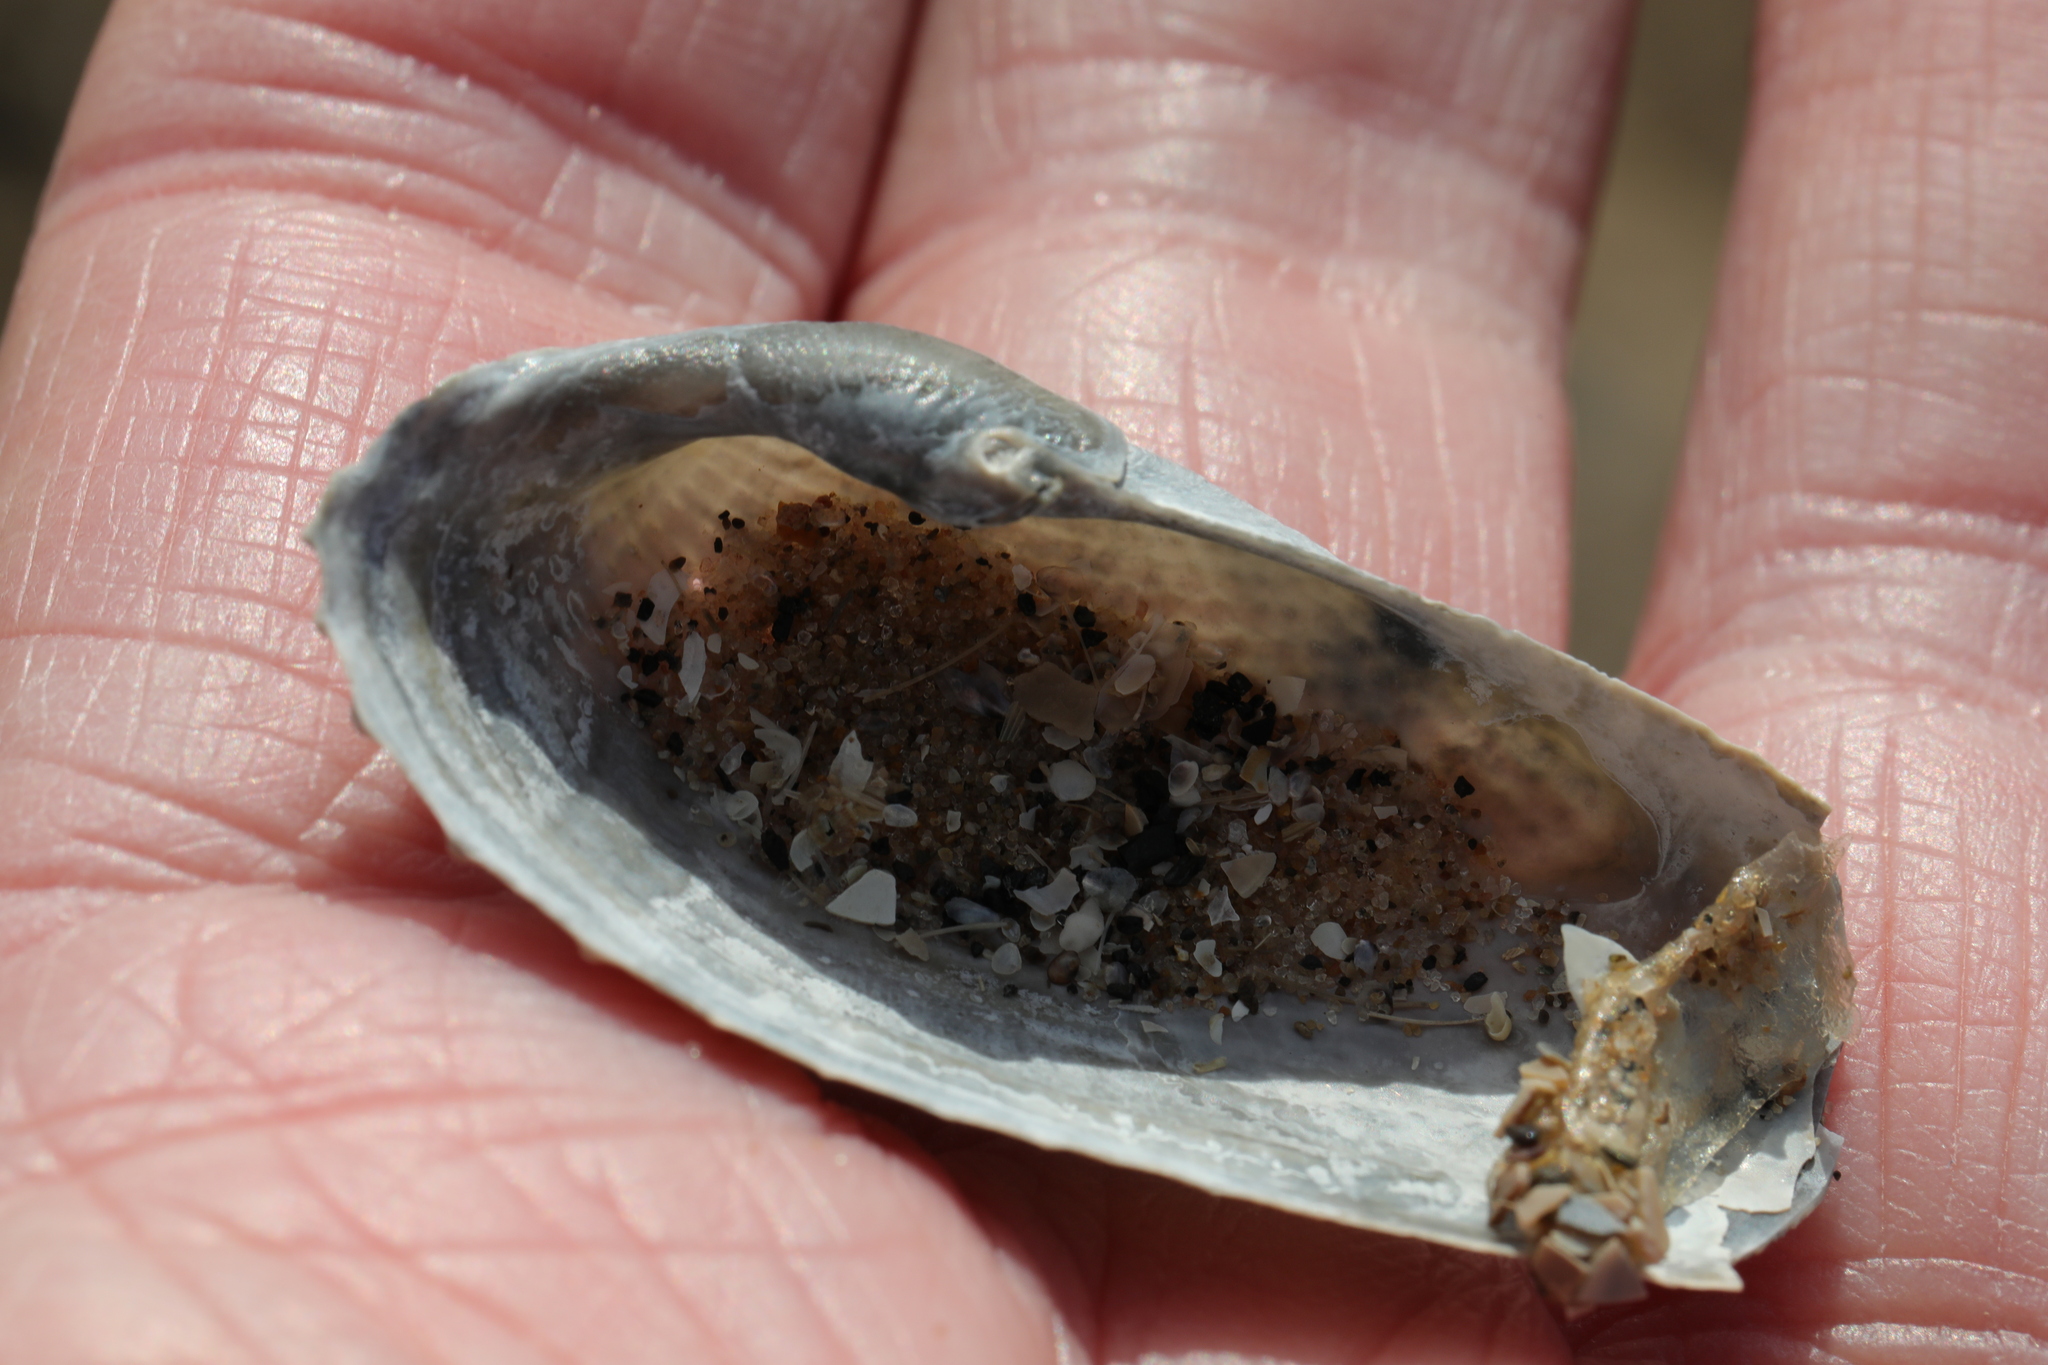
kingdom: Animalia
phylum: Mollusca
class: Bivalvia
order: Myida
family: Pholadidae
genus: Barnea
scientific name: Barnea candida
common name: White piddock
